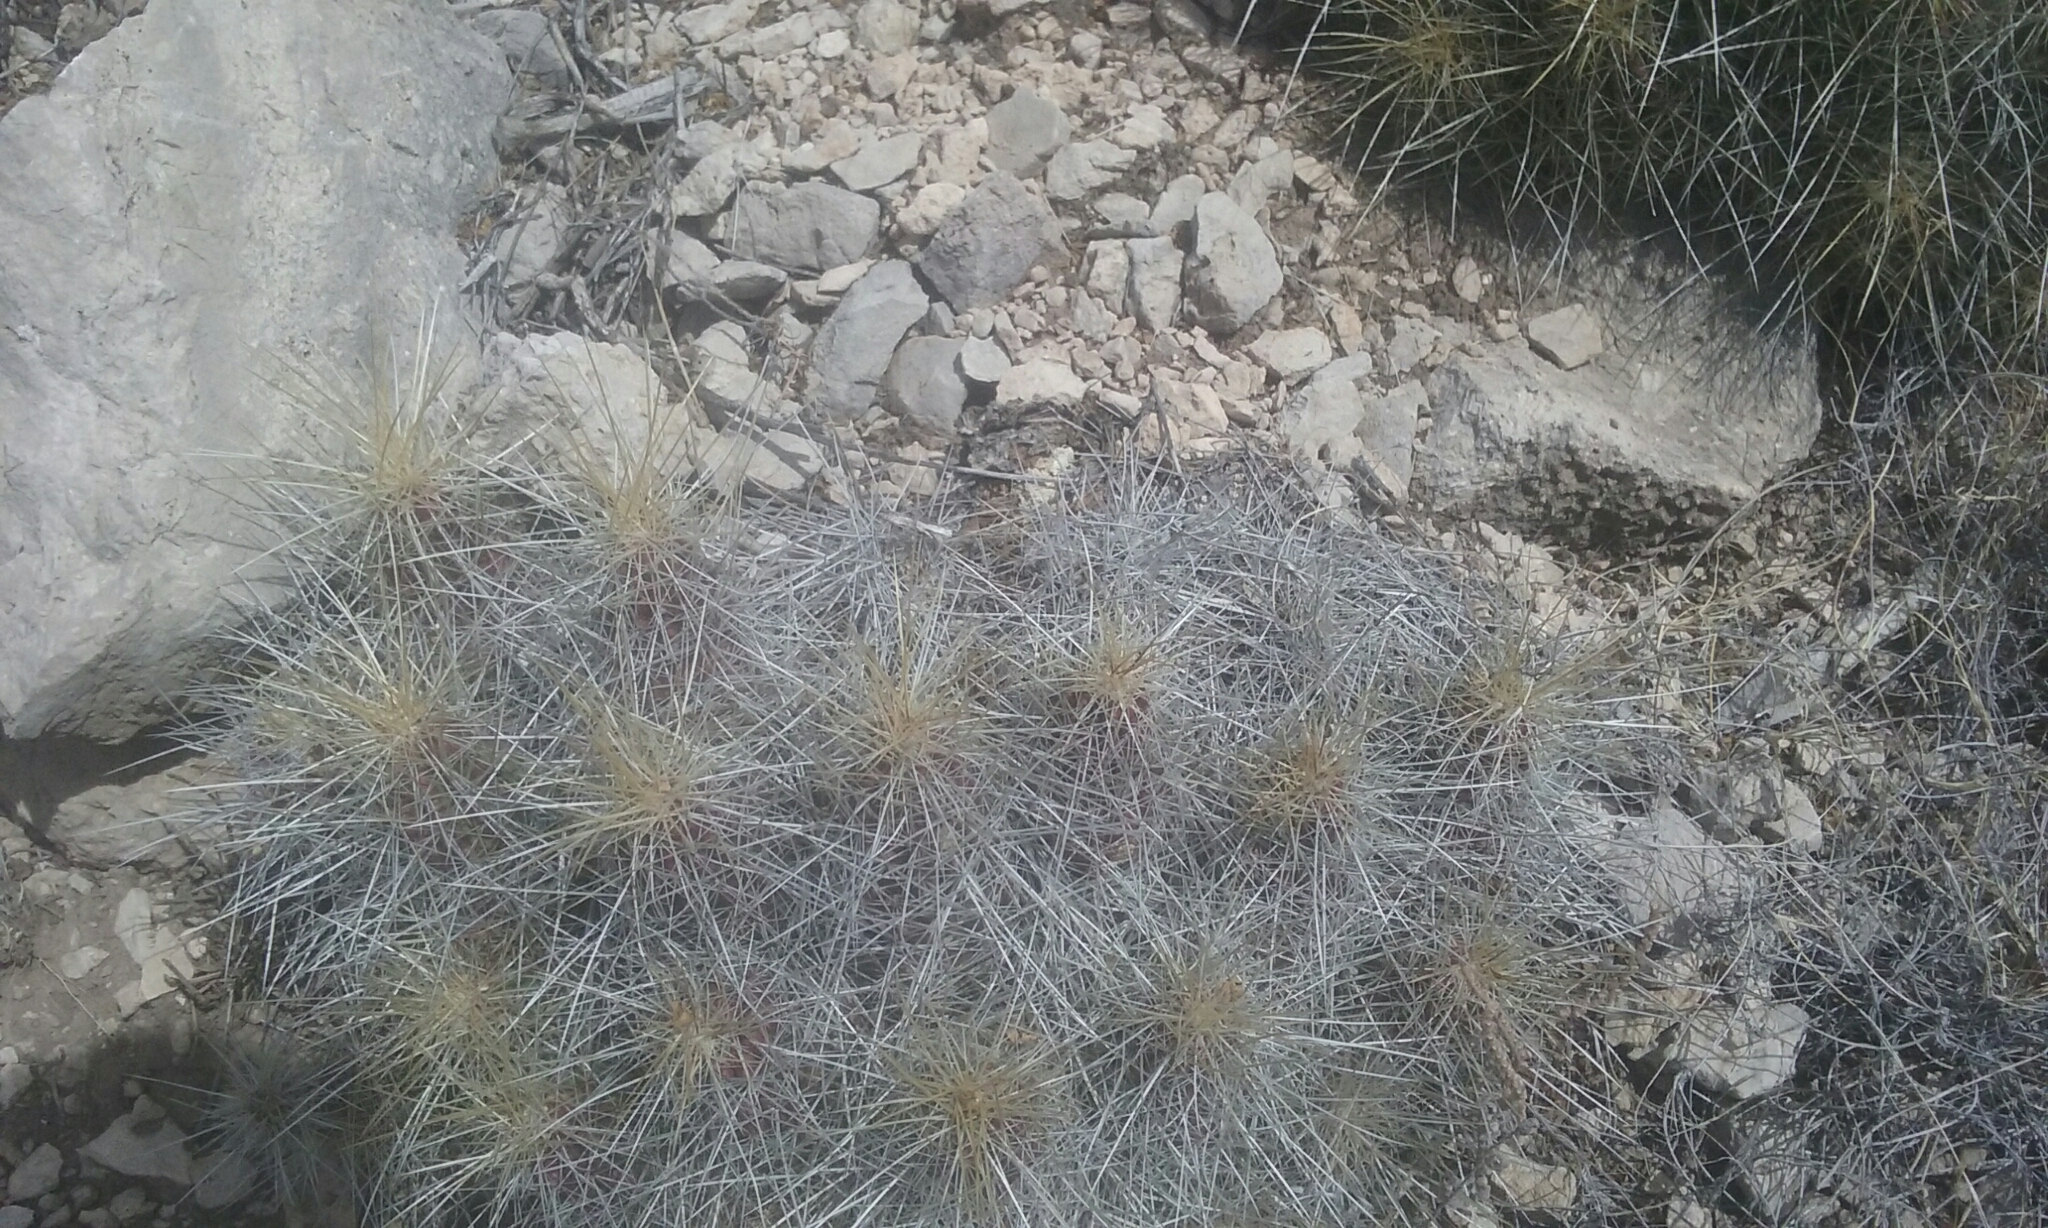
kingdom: Plantae
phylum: Tracheophyta
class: Magnoliopsida
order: Caryophyllales
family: Cactaceae
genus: Echinocereus
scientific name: Echinocereus stramineus
